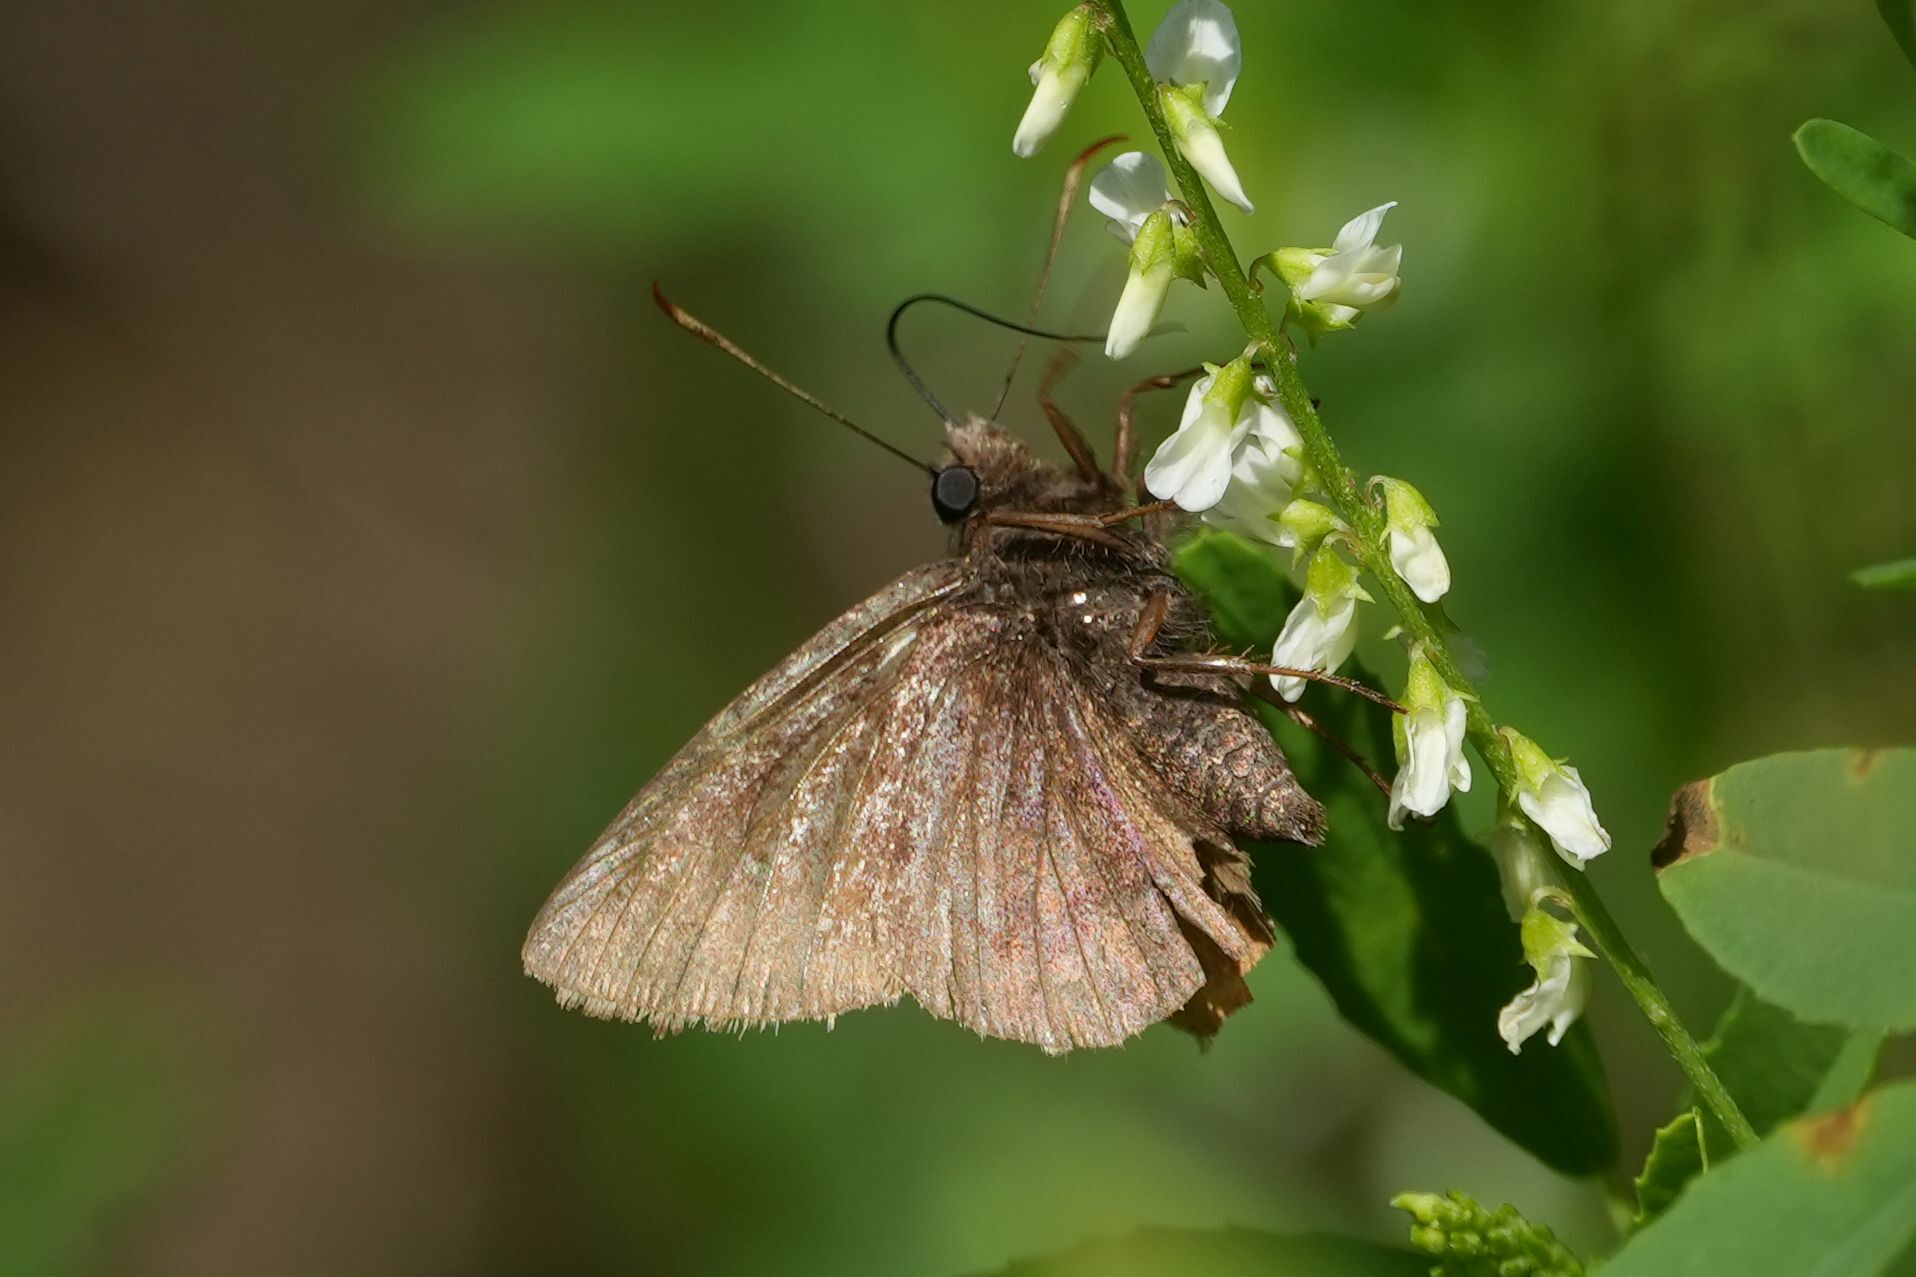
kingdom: Animalia
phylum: Arthropoda
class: Insecta
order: Lepidoptera
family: Hesperiidae
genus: Thorybes
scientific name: Thorybes pylades
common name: Northern cloudywing
